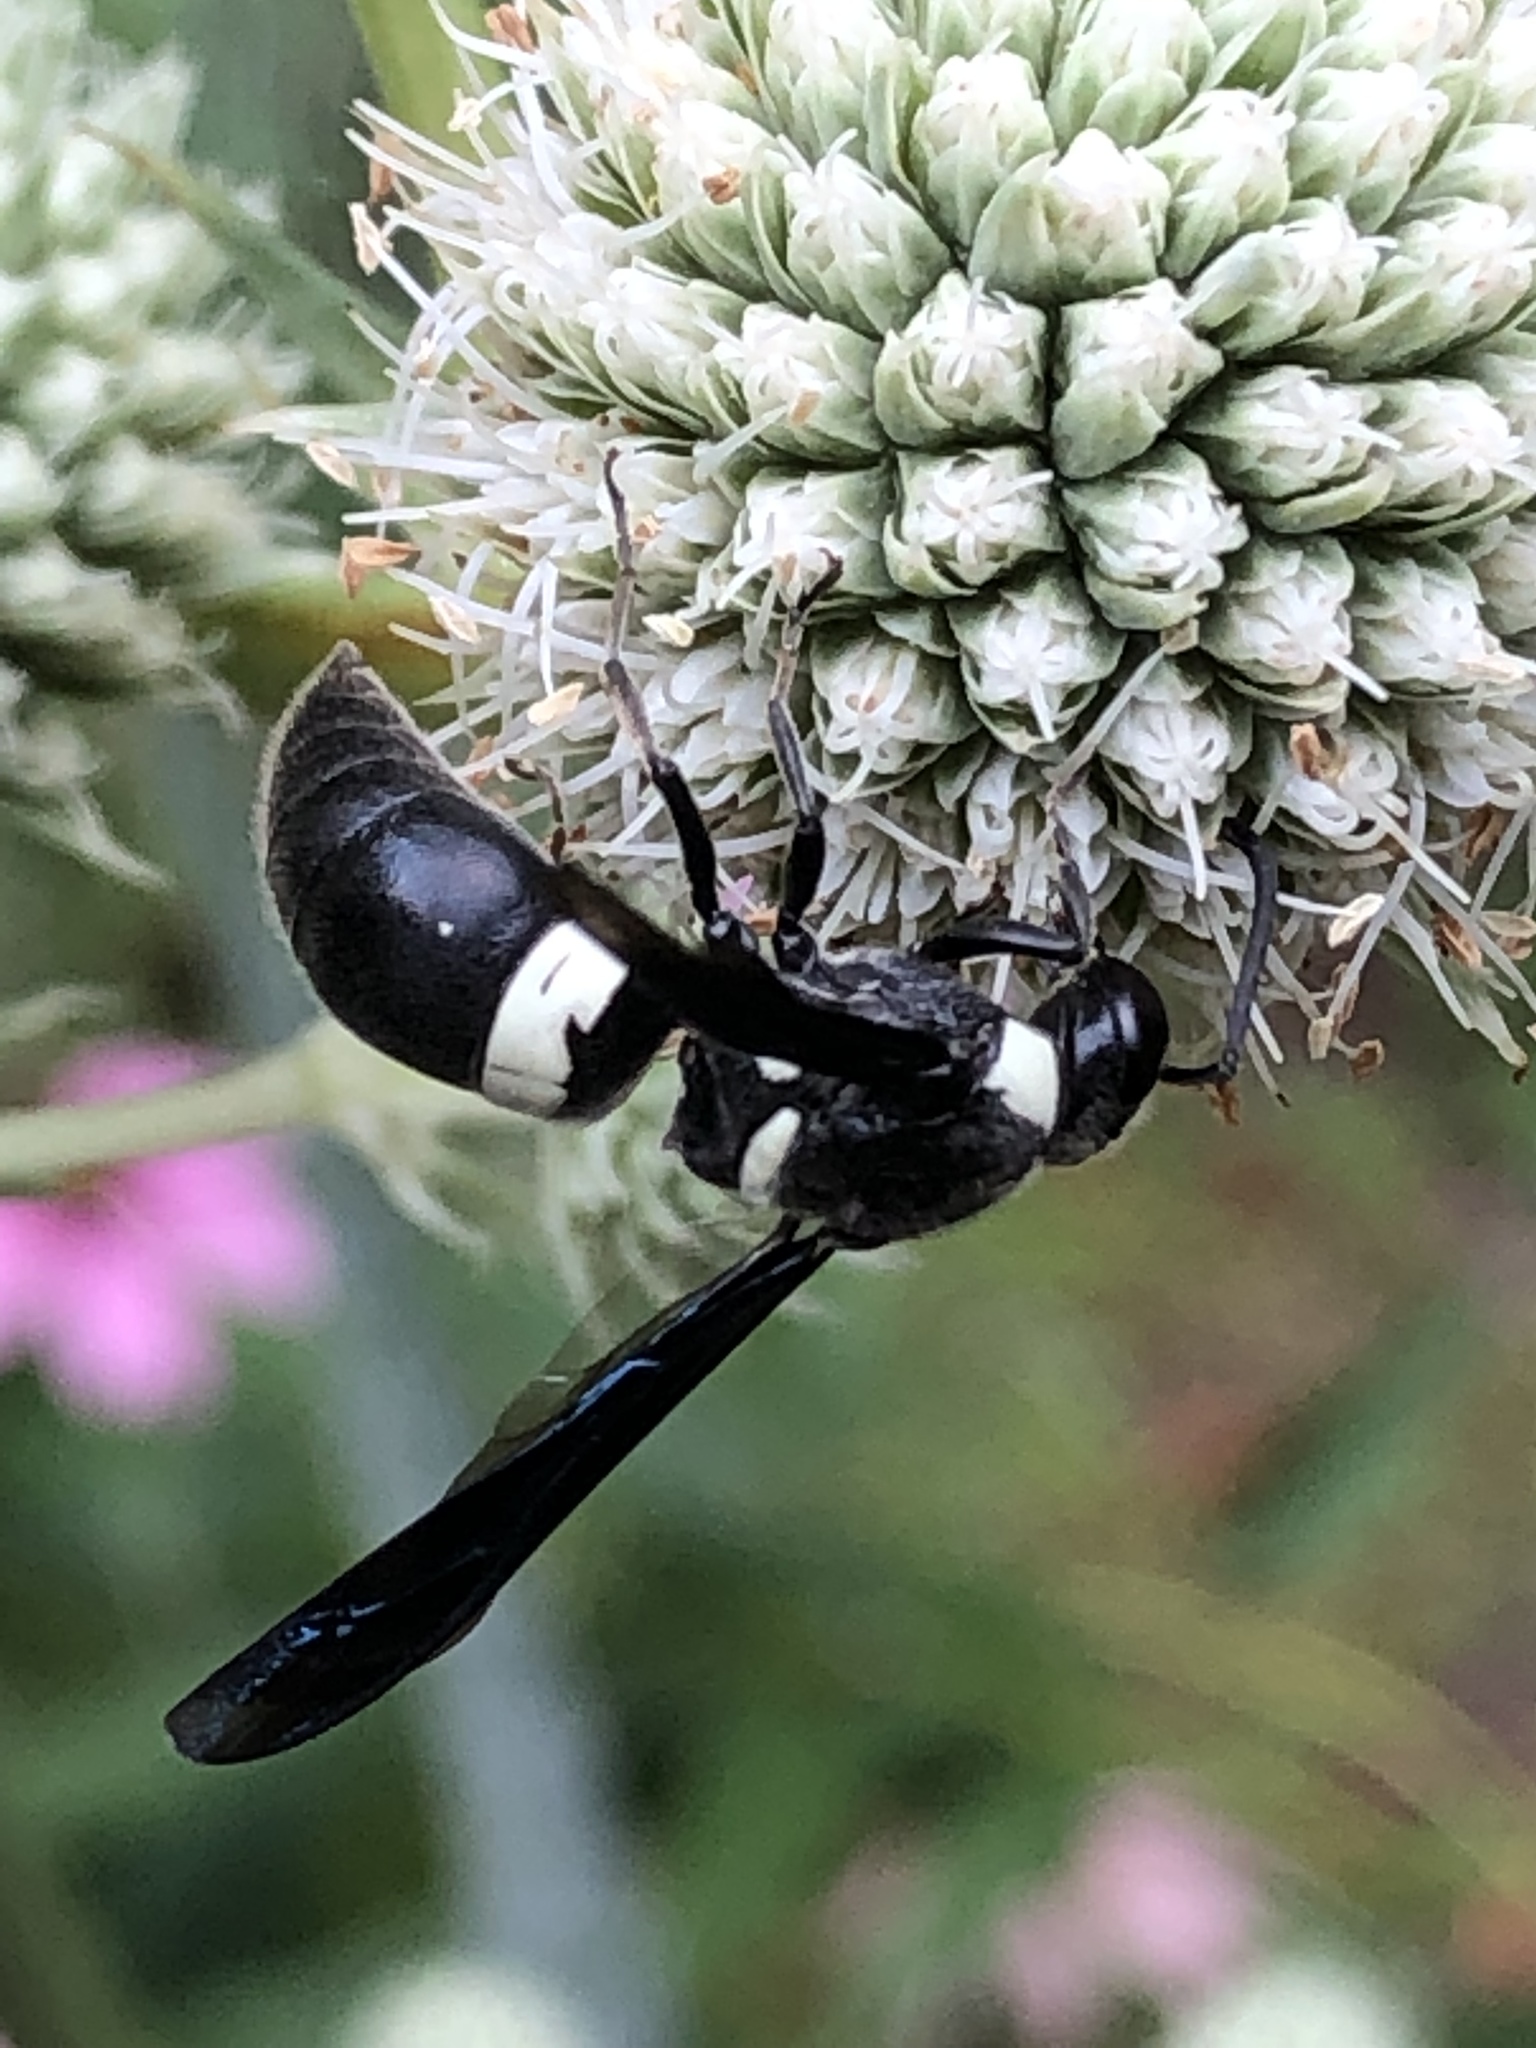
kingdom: Animalia
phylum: Arthropoda
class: Insecta
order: Hymenoptera
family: Eumenidae
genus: Monobia
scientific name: Monobia quadridens
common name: Four-toothed mason wasp
